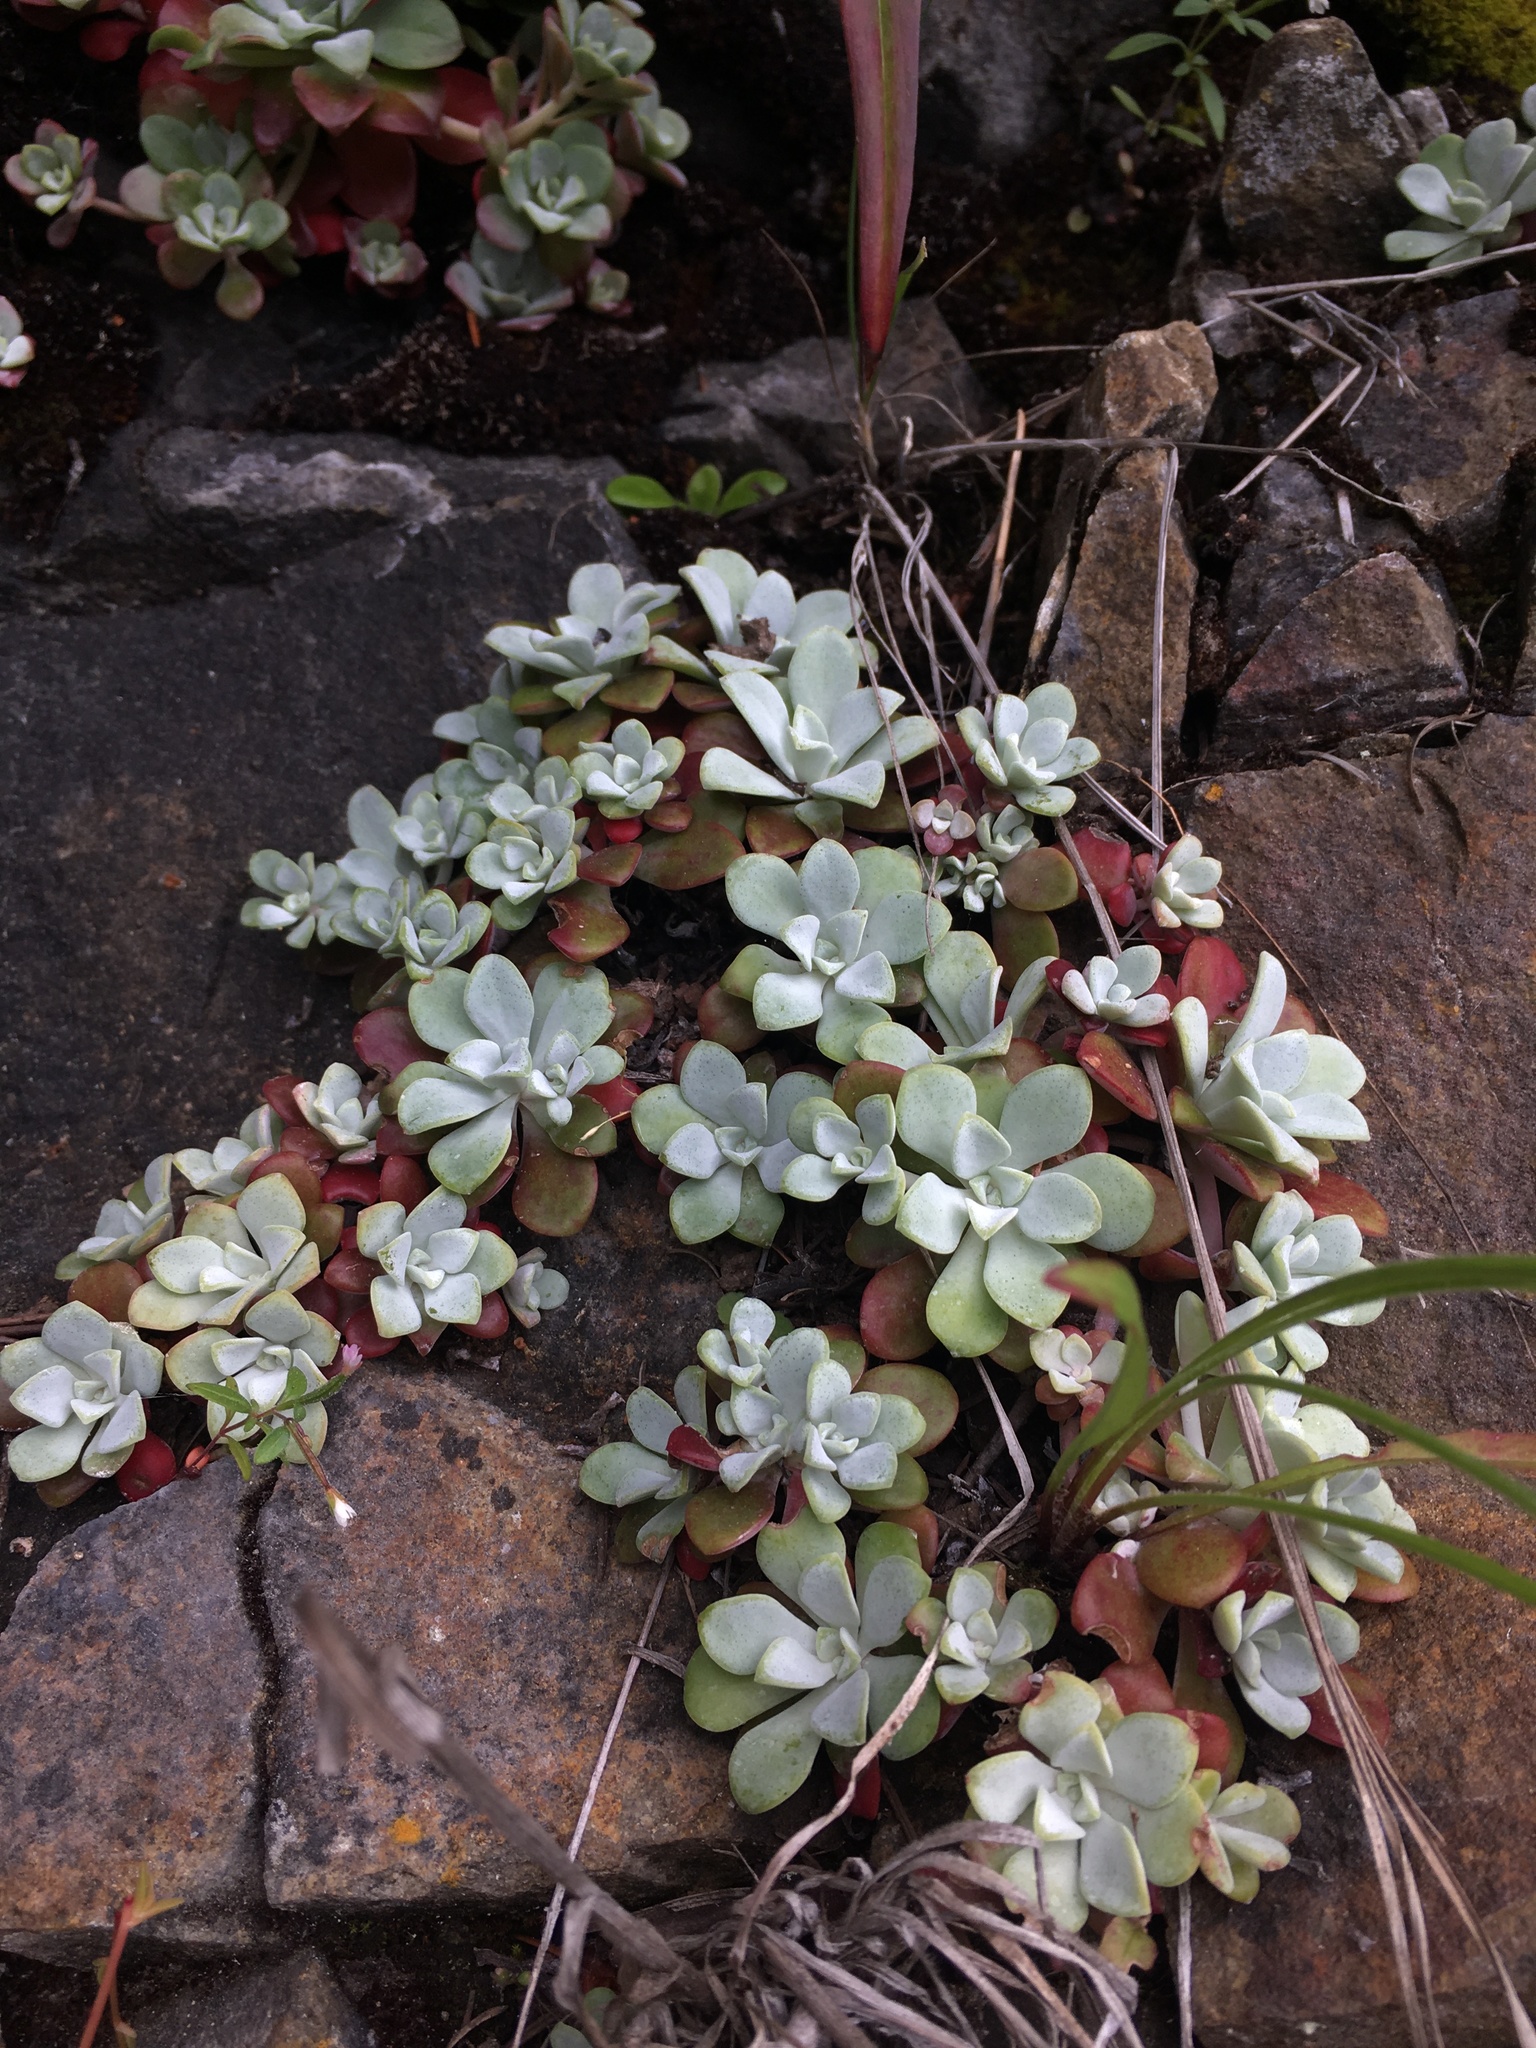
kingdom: Plantae
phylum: Tracheophyta
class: Magnoliopsida
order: Saxifragales
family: Crassulaceae
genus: Sedum
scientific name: Sedum spathulifolium
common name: Colorado stonecrop
